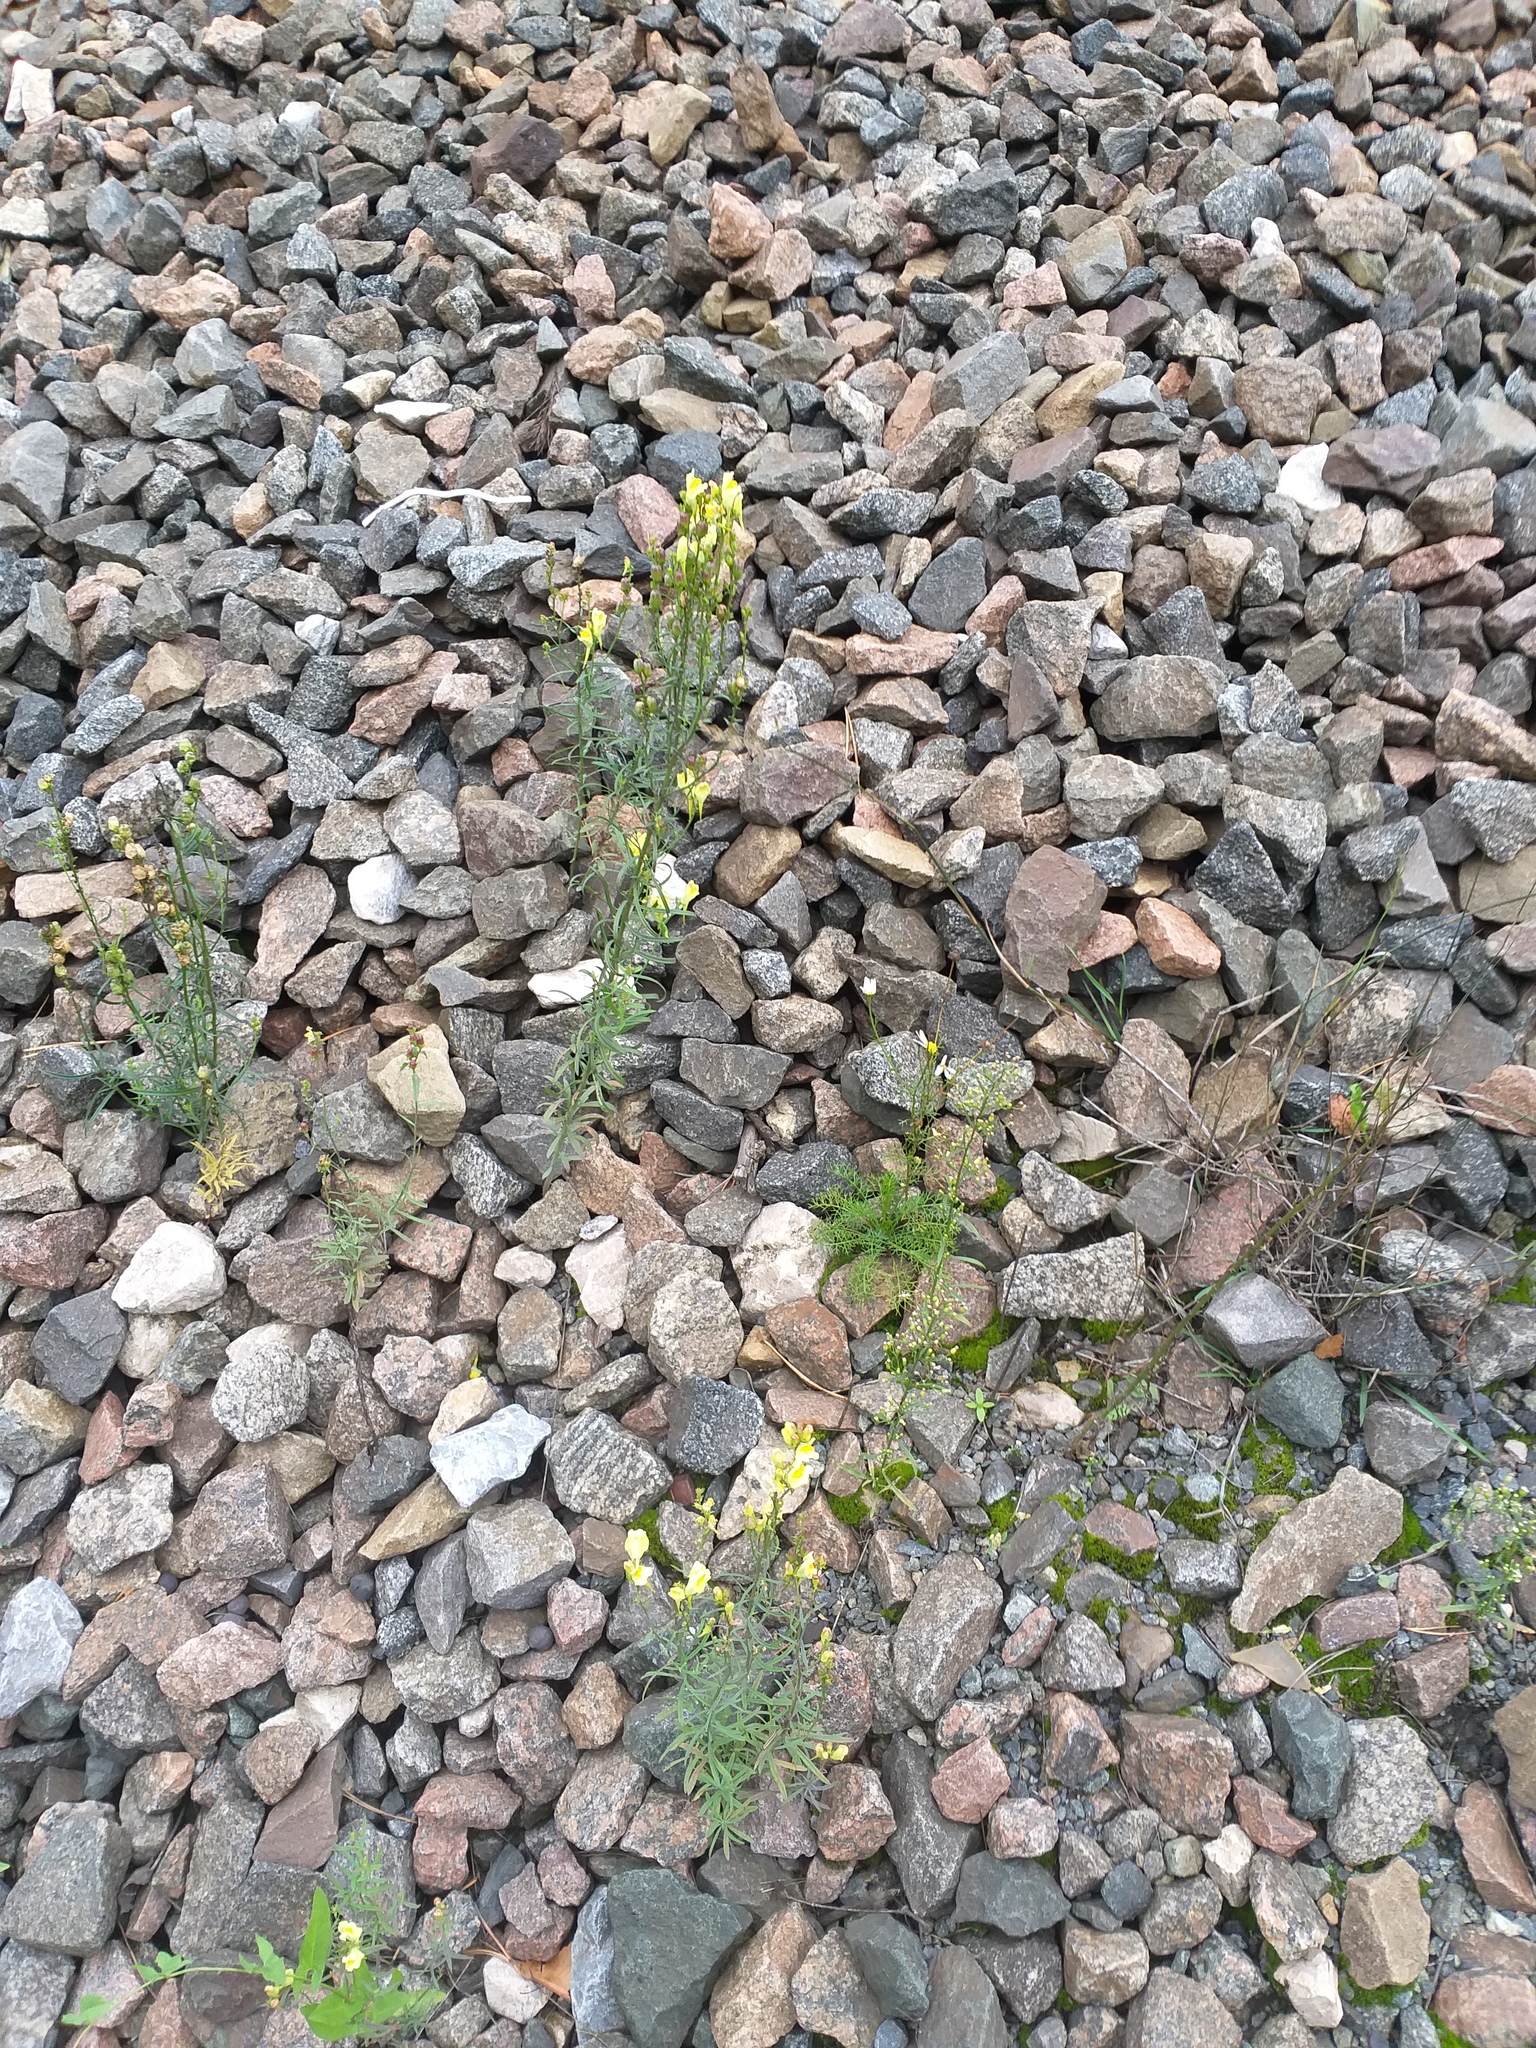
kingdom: Plantae
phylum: Tracheophyta
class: Magnoliopsida
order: Lamiales
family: Plantaginaceae
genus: Linaria
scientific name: Linaria vulgaris
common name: Butter and eggs
